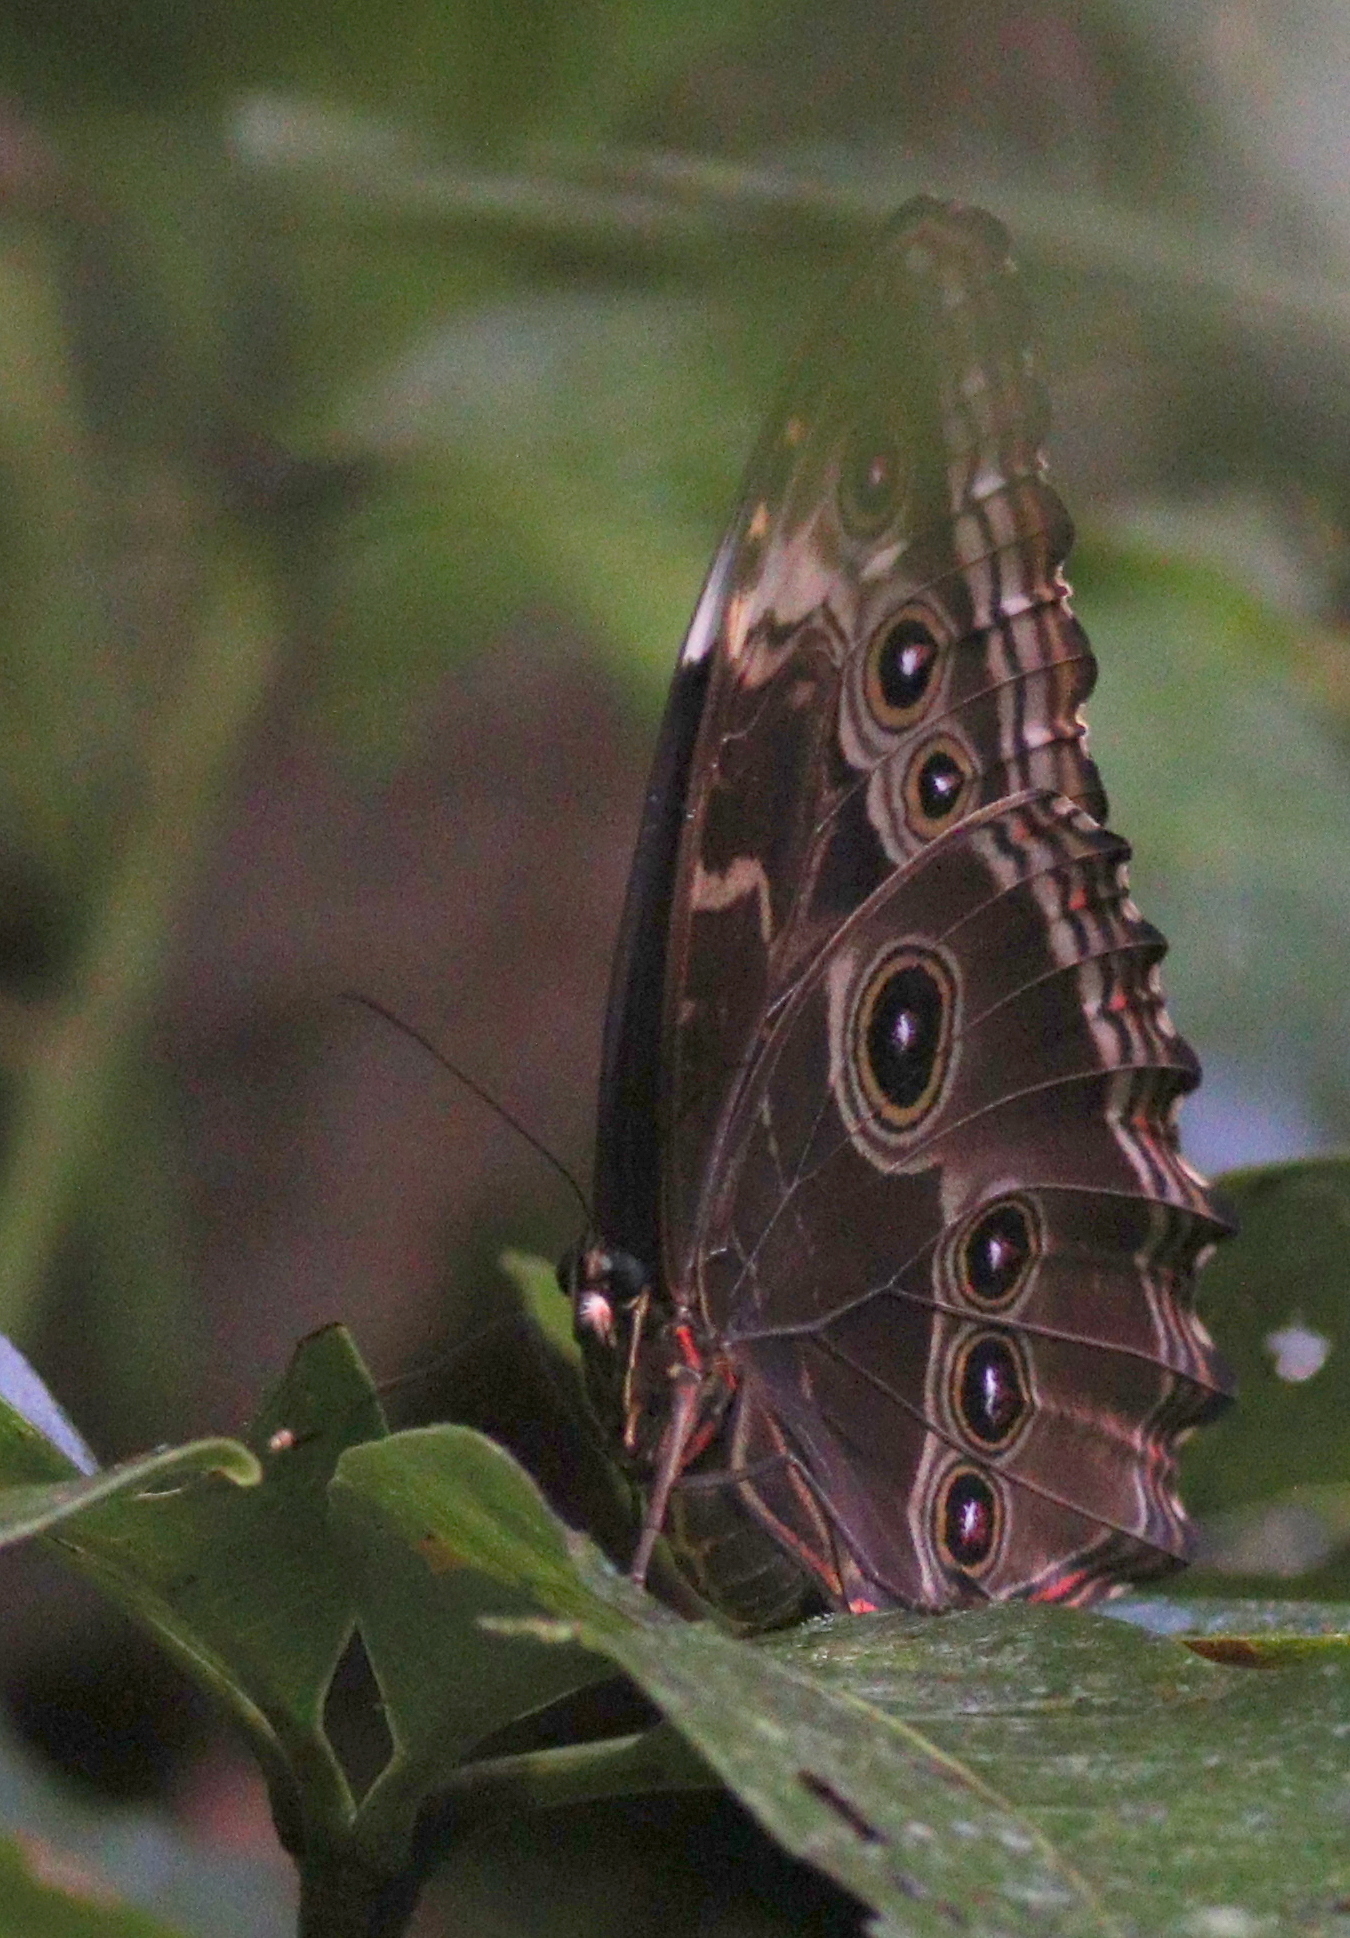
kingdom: Animalia
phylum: Arthropoda
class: Insecta
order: Lepidoptera
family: Nymphalidae
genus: Morpho
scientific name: Morpho helenor
